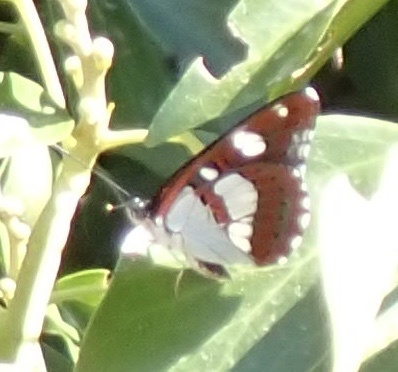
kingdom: Animalia
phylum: Arthropoda
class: Insecta
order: Lepidoptera
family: Nymphalidae
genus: Limenitis
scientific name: Limenitis reducta
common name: Southern white admiral
